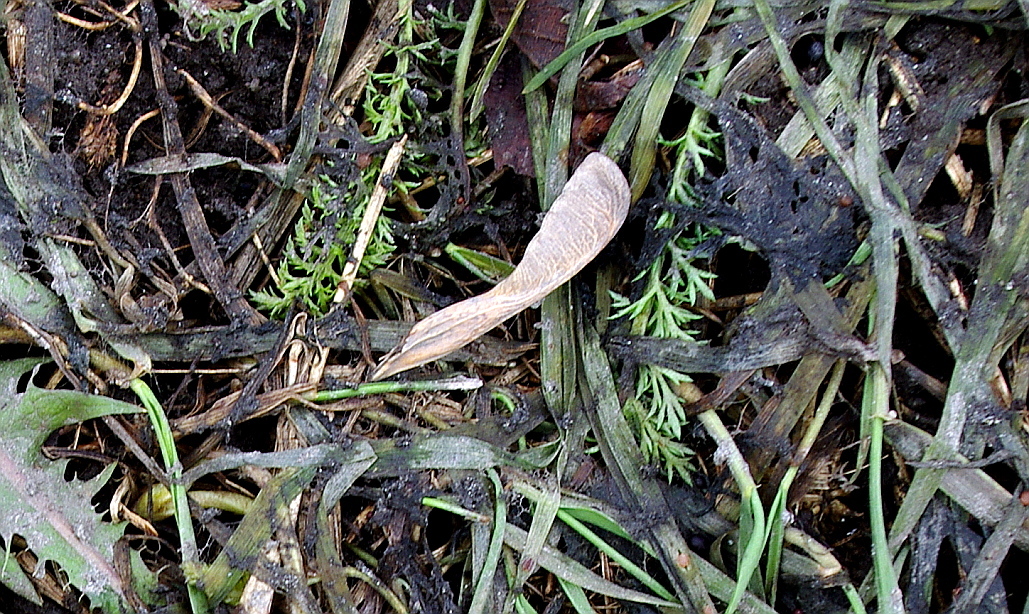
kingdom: Plantae
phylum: Tracheophyta
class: Magnoliopsida
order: Sapindales
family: Sapindaceae
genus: Acer
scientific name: Acer negundo
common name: Ashleaf maple
